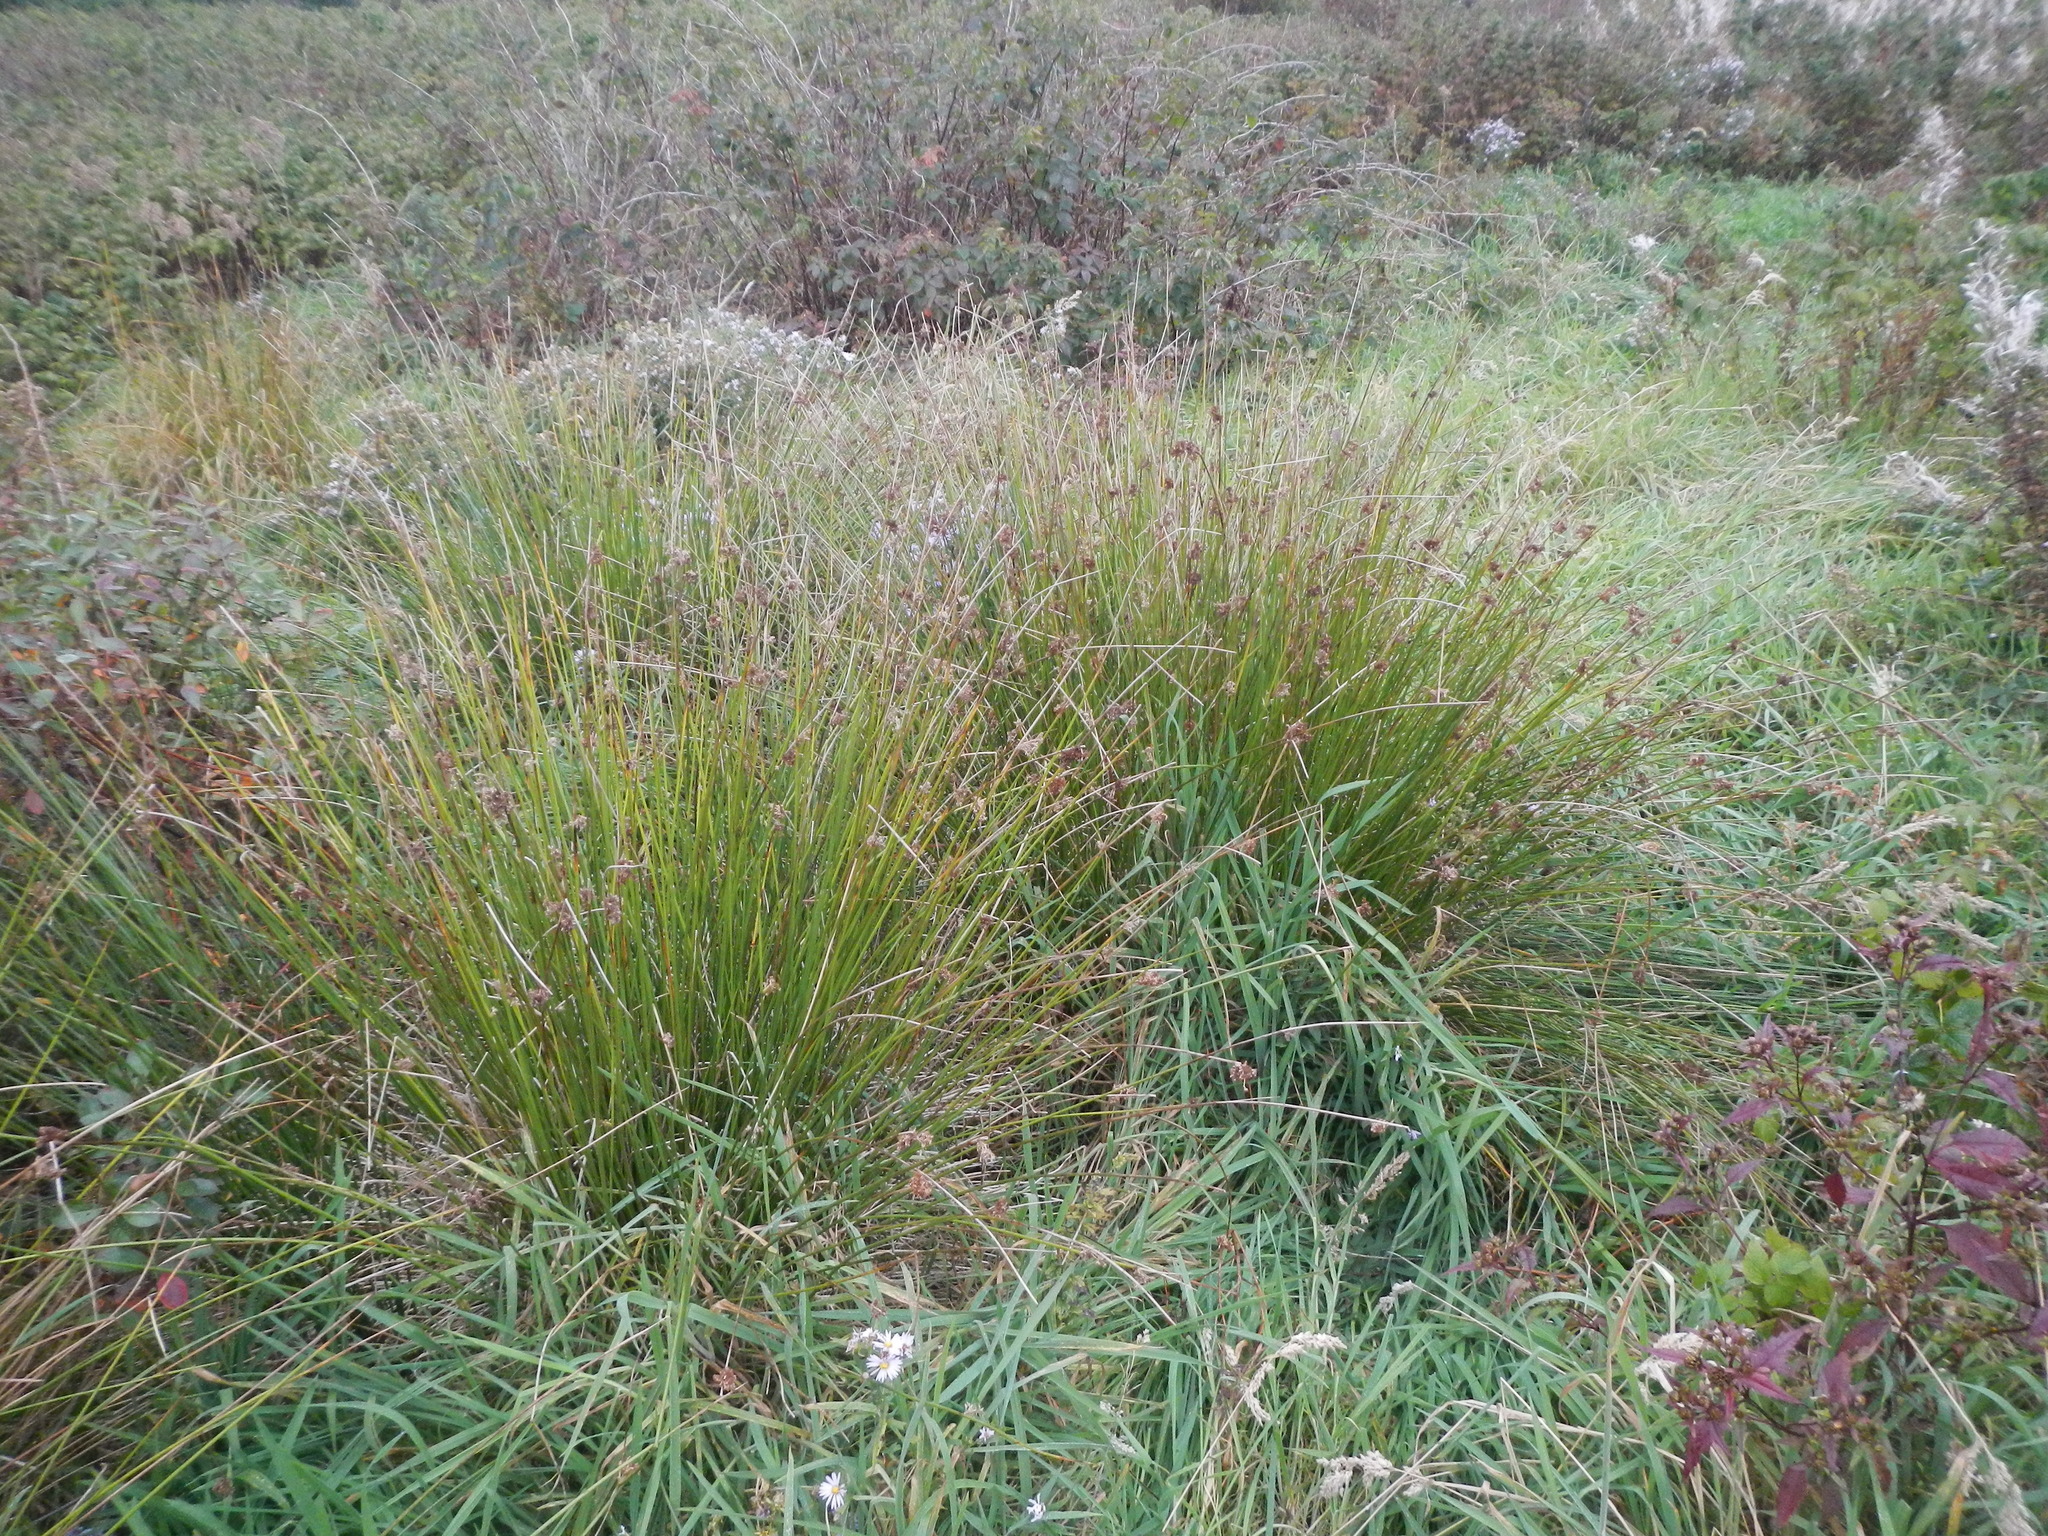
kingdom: Plantae
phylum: Tracheophyta
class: Liliopsida
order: Poales
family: Juncaceae
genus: Juncus
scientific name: Juncus effusus
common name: Soft rush
